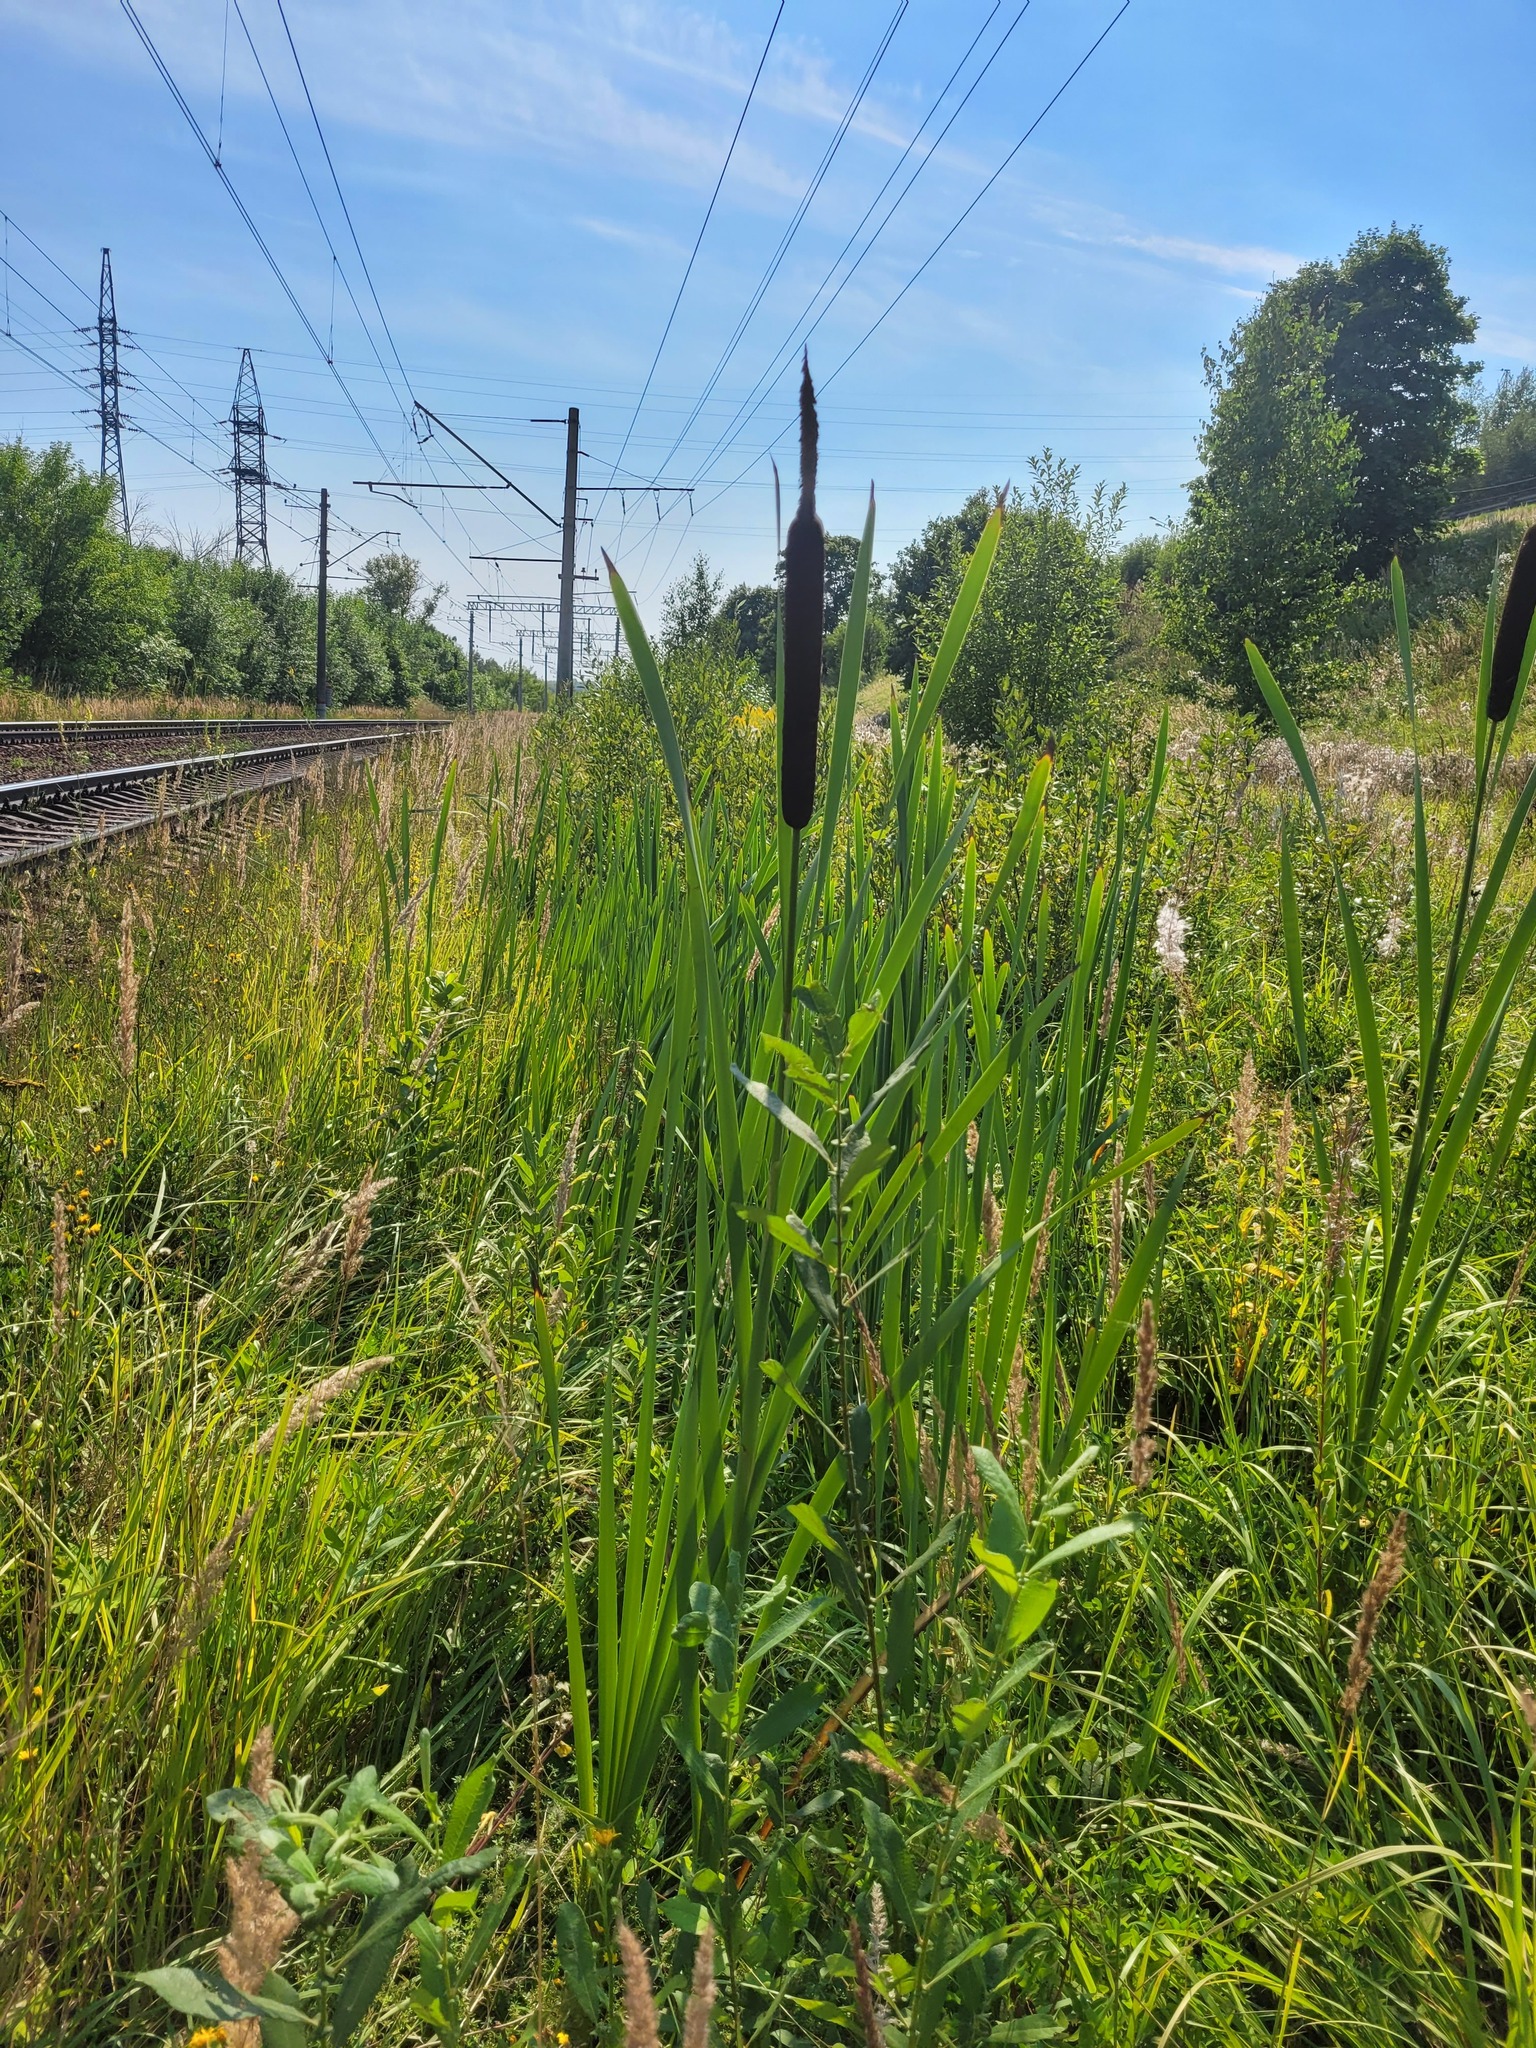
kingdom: Plantae
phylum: Tracheophyta
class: Liliopsida
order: Poales
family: Typhaceae
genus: Typha
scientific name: Typha latifolia
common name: Broadleaf cattail
